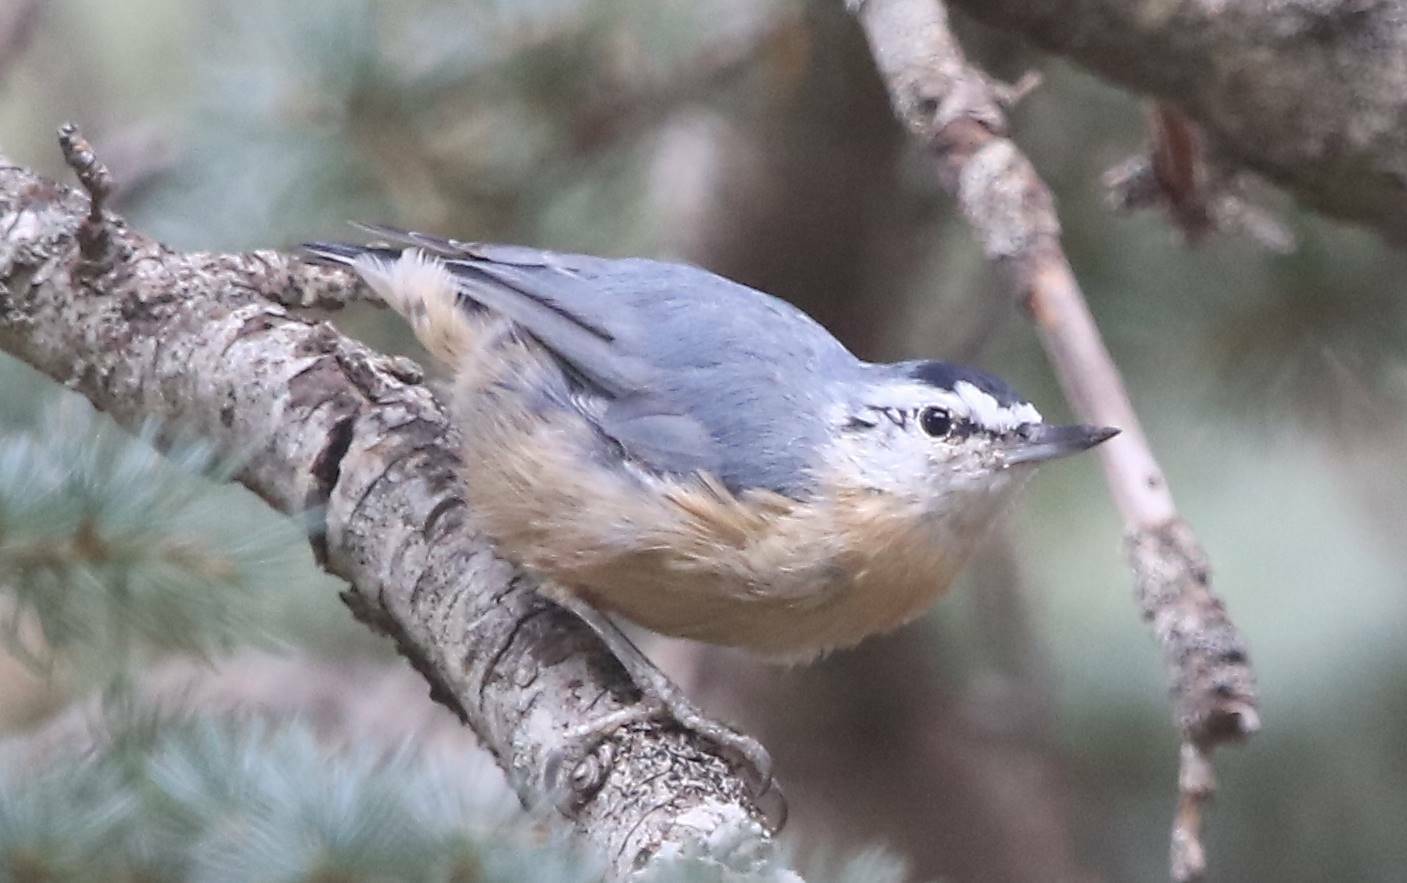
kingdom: Animalia
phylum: Chordata
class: Aves
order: Passeriformes
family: Sittidae
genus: Sitta
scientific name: Sitta ledanti
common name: Algerian nuthatch
